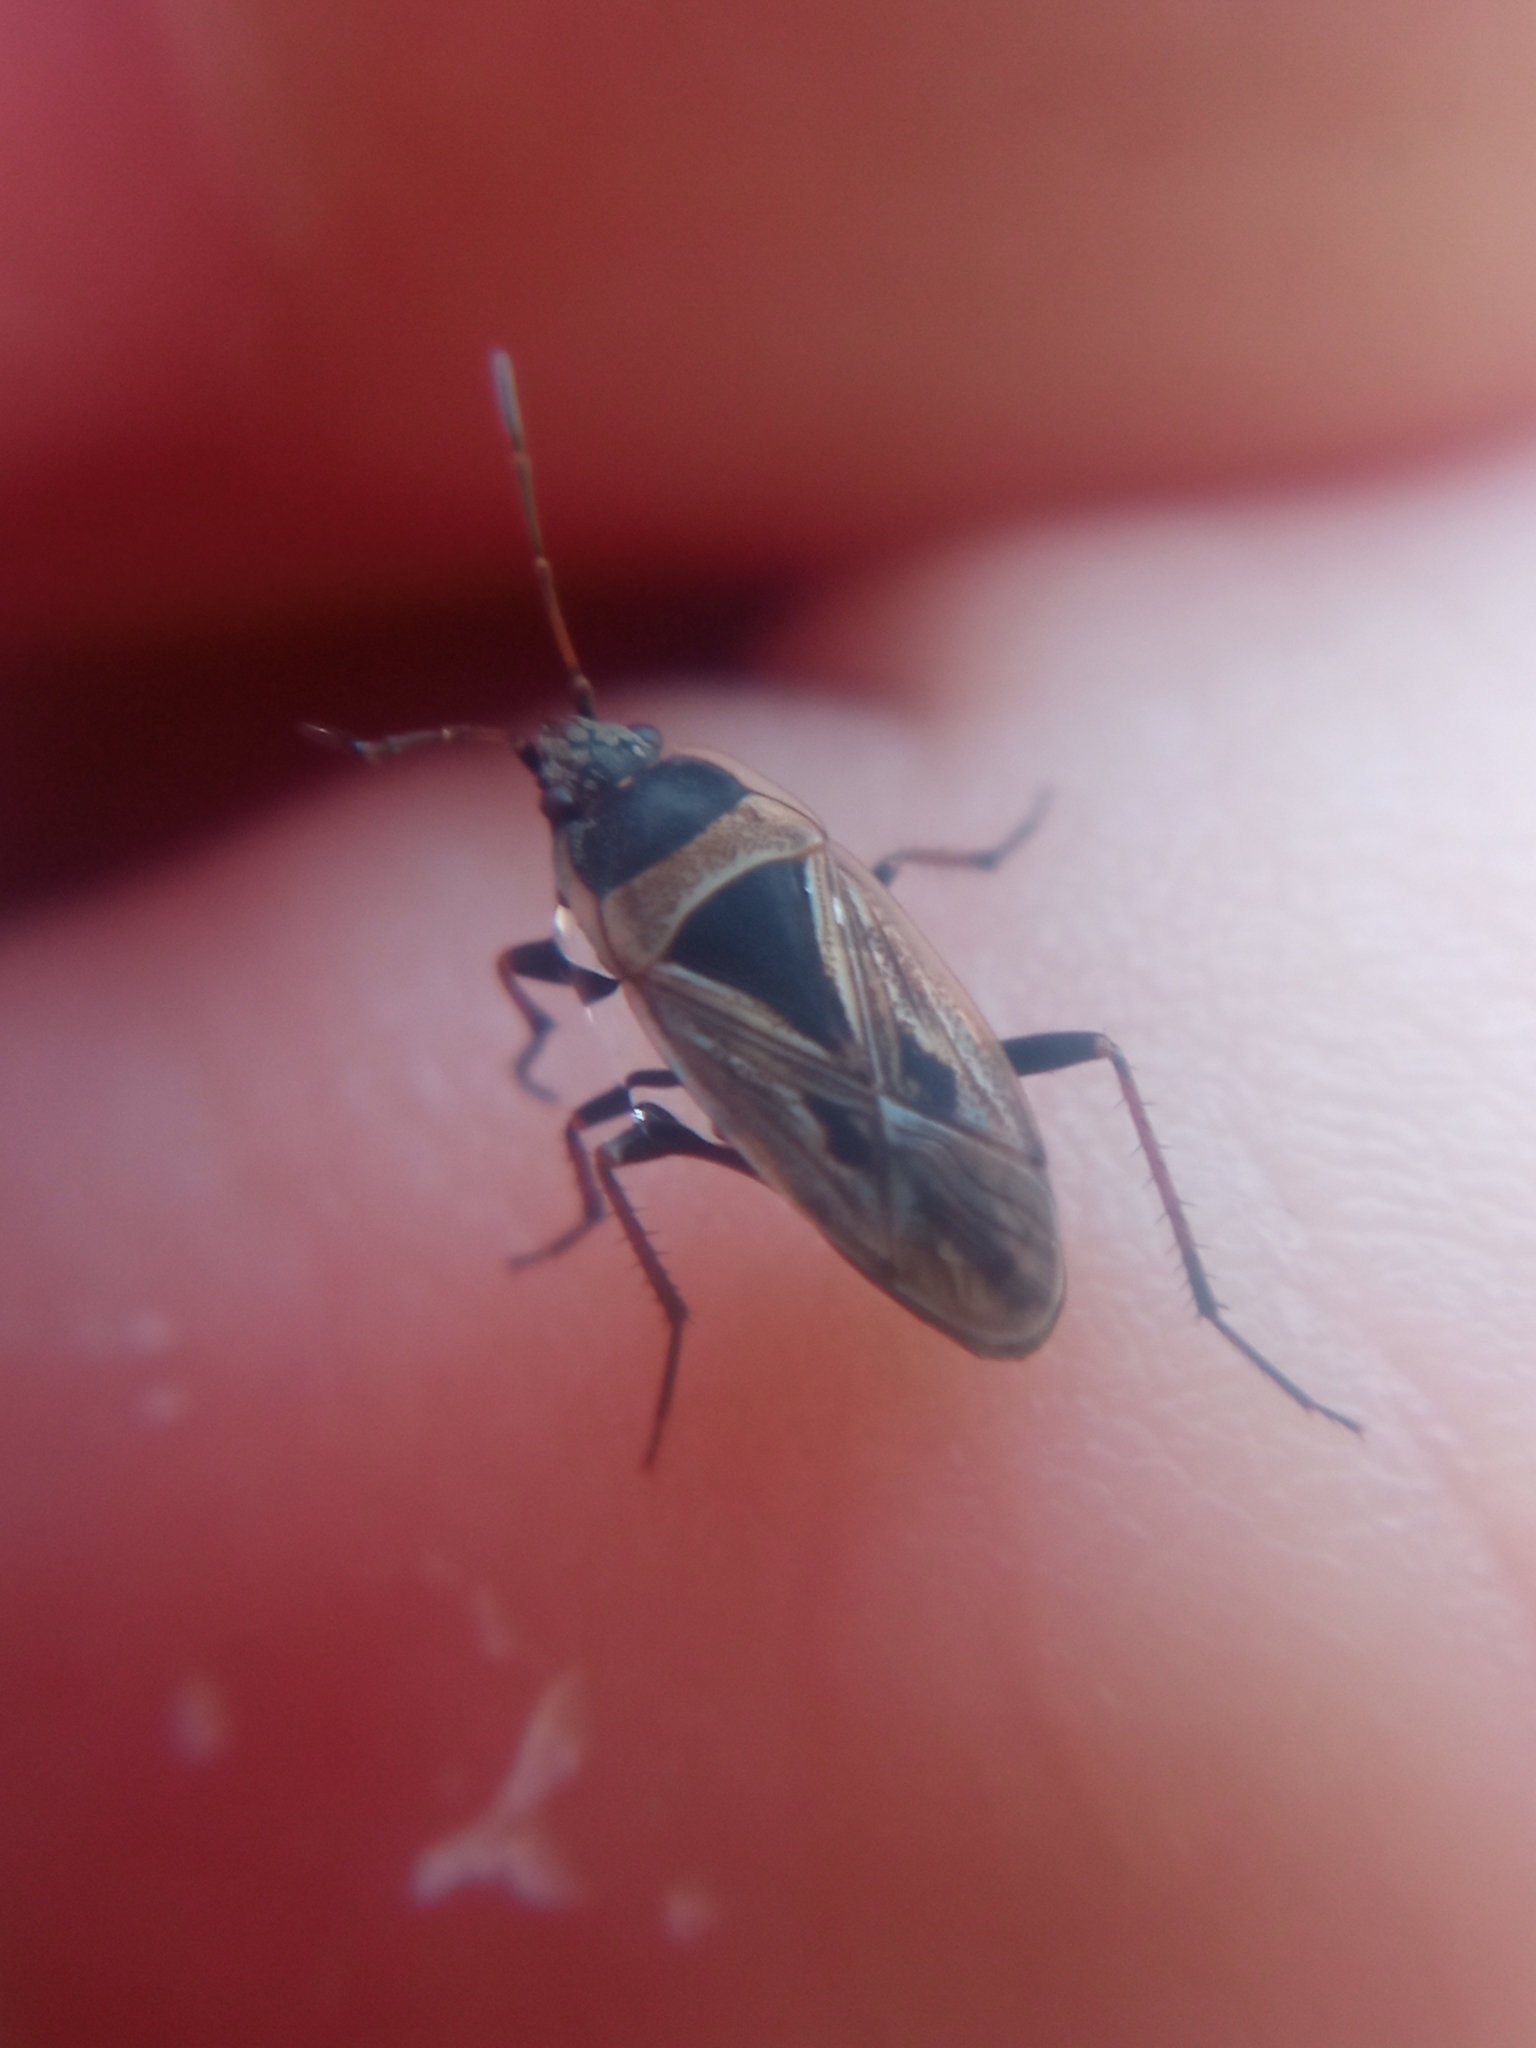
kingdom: Animalia
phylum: Arthropoda
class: Insecta
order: Hemiptera
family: Rhyparochromidae
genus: Xanthochilus
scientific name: Xanthochilus quadratus
